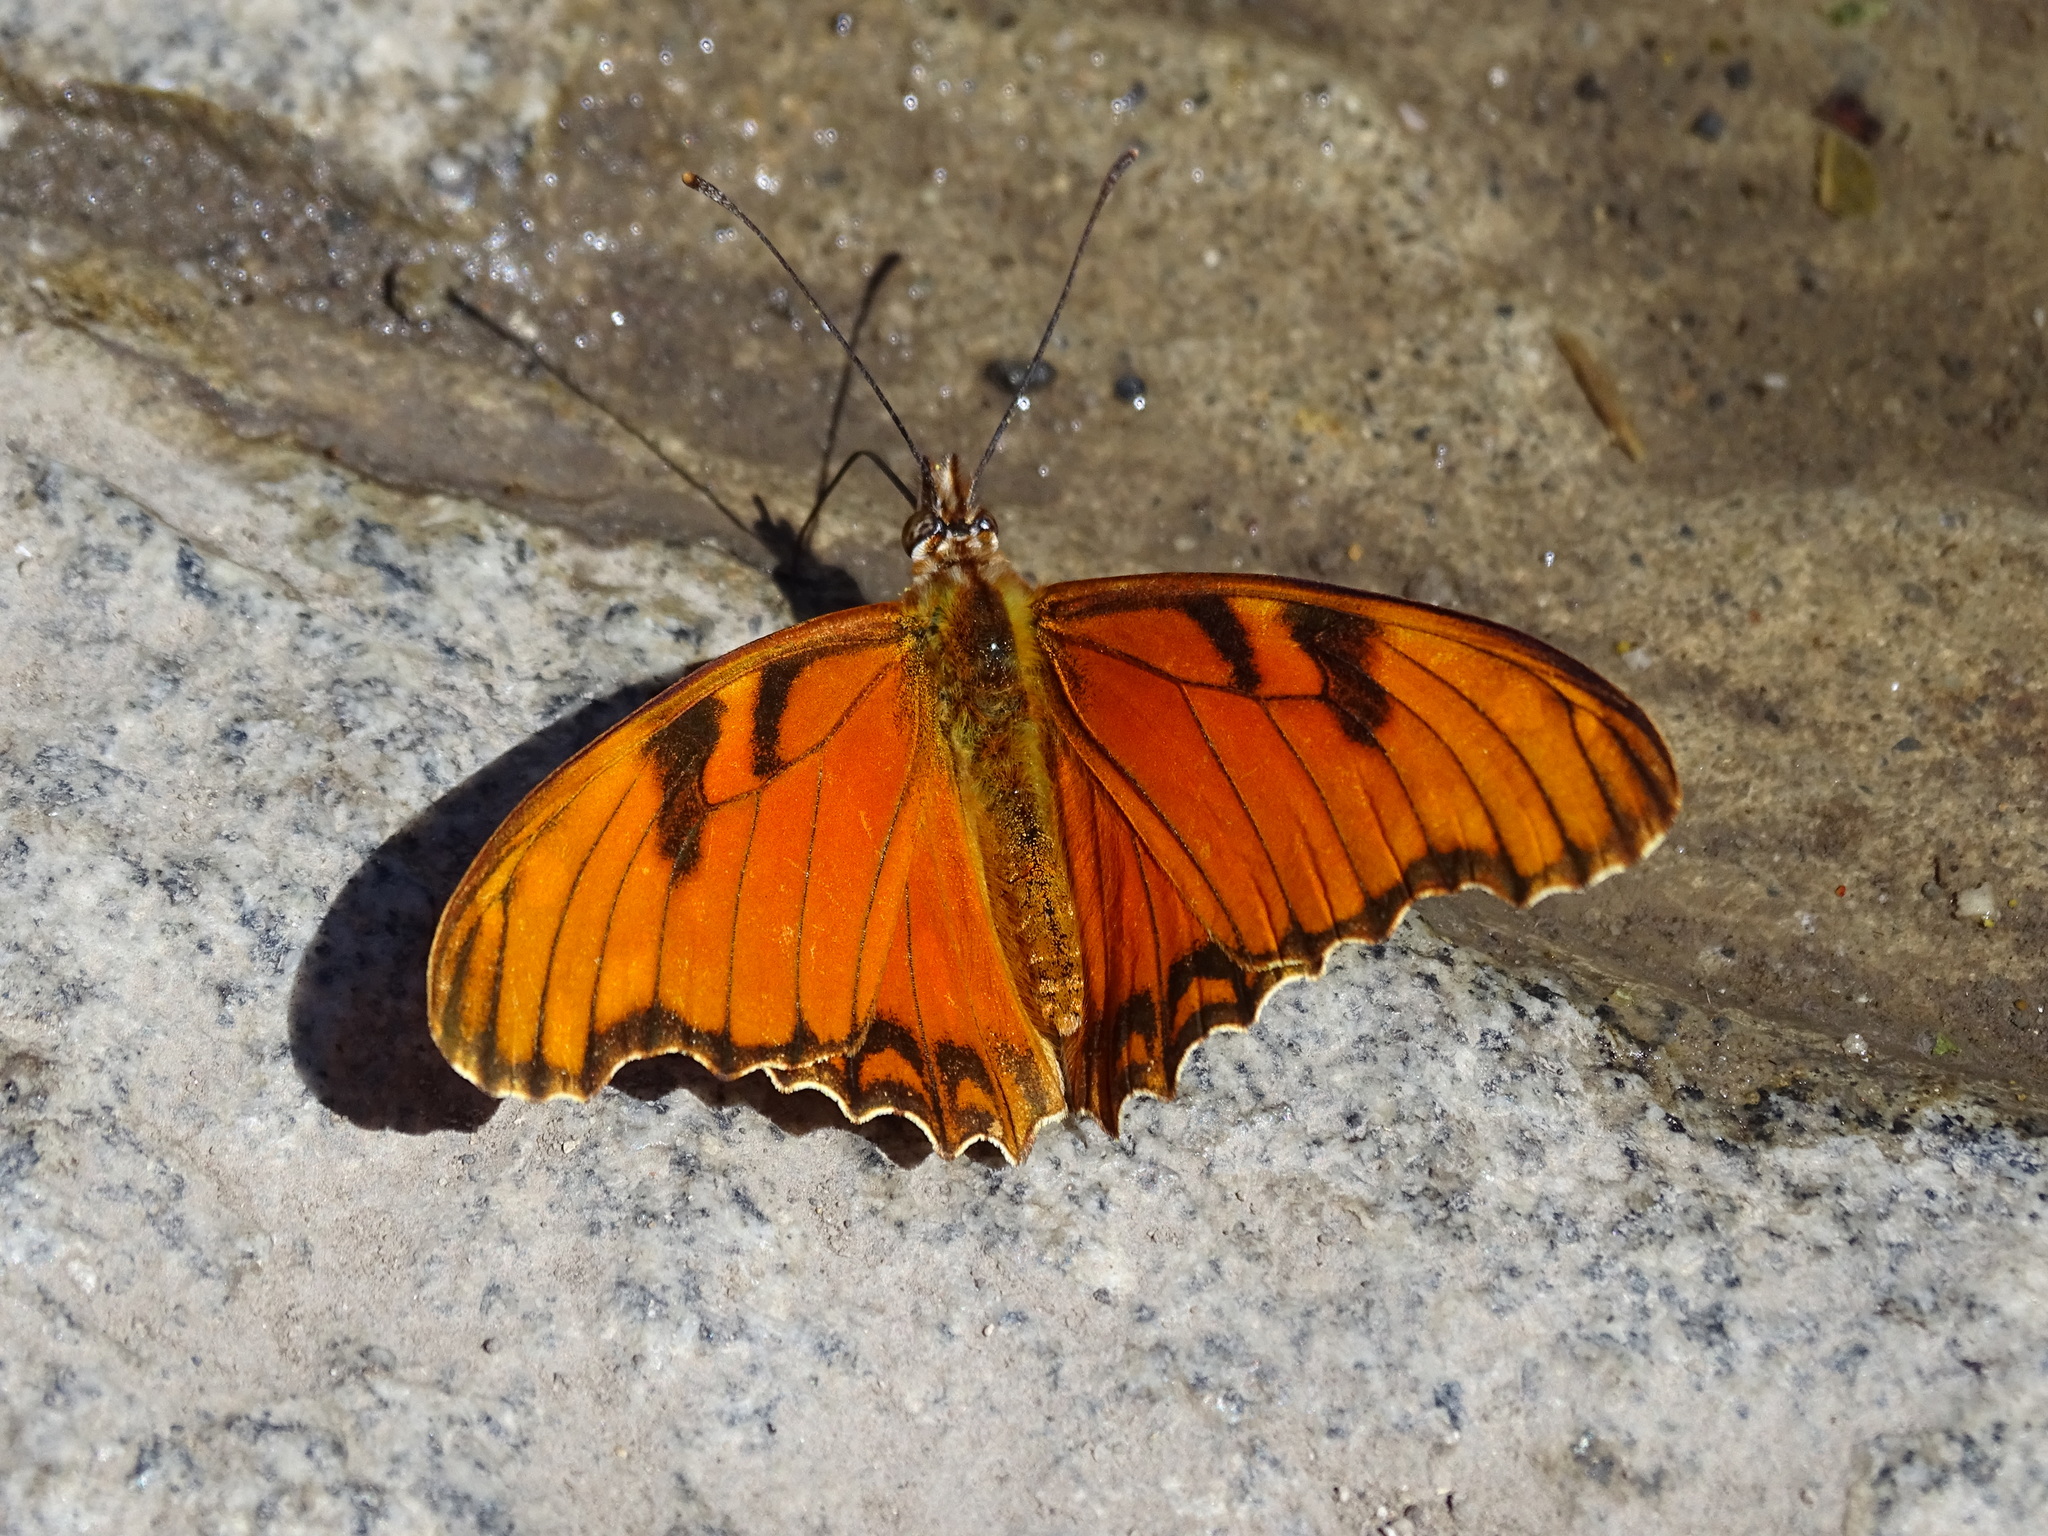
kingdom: Animalia
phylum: Arthropoda
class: Insecta
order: Lepidoptera
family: Nymphalidae
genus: Dione
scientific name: Dione juno
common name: Juno silverspot
